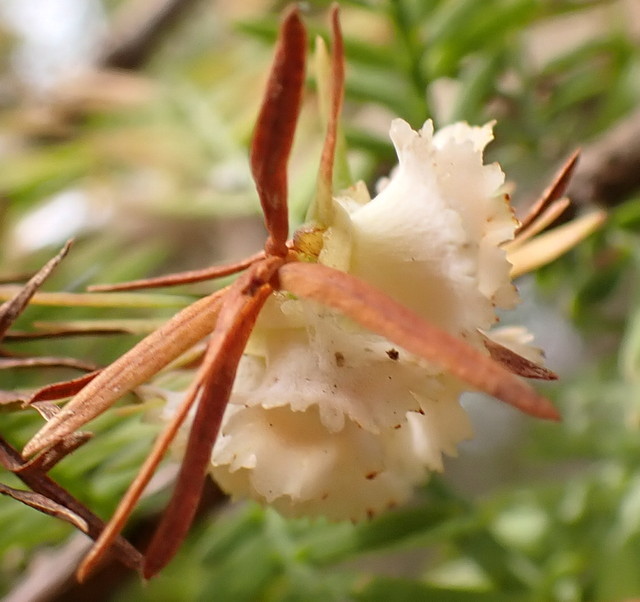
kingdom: Animalia
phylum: Arthropoda
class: Insecta
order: Diptera
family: Cecidomyiidae
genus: Taxodiomyia
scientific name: Taxodiomyia cupressi
